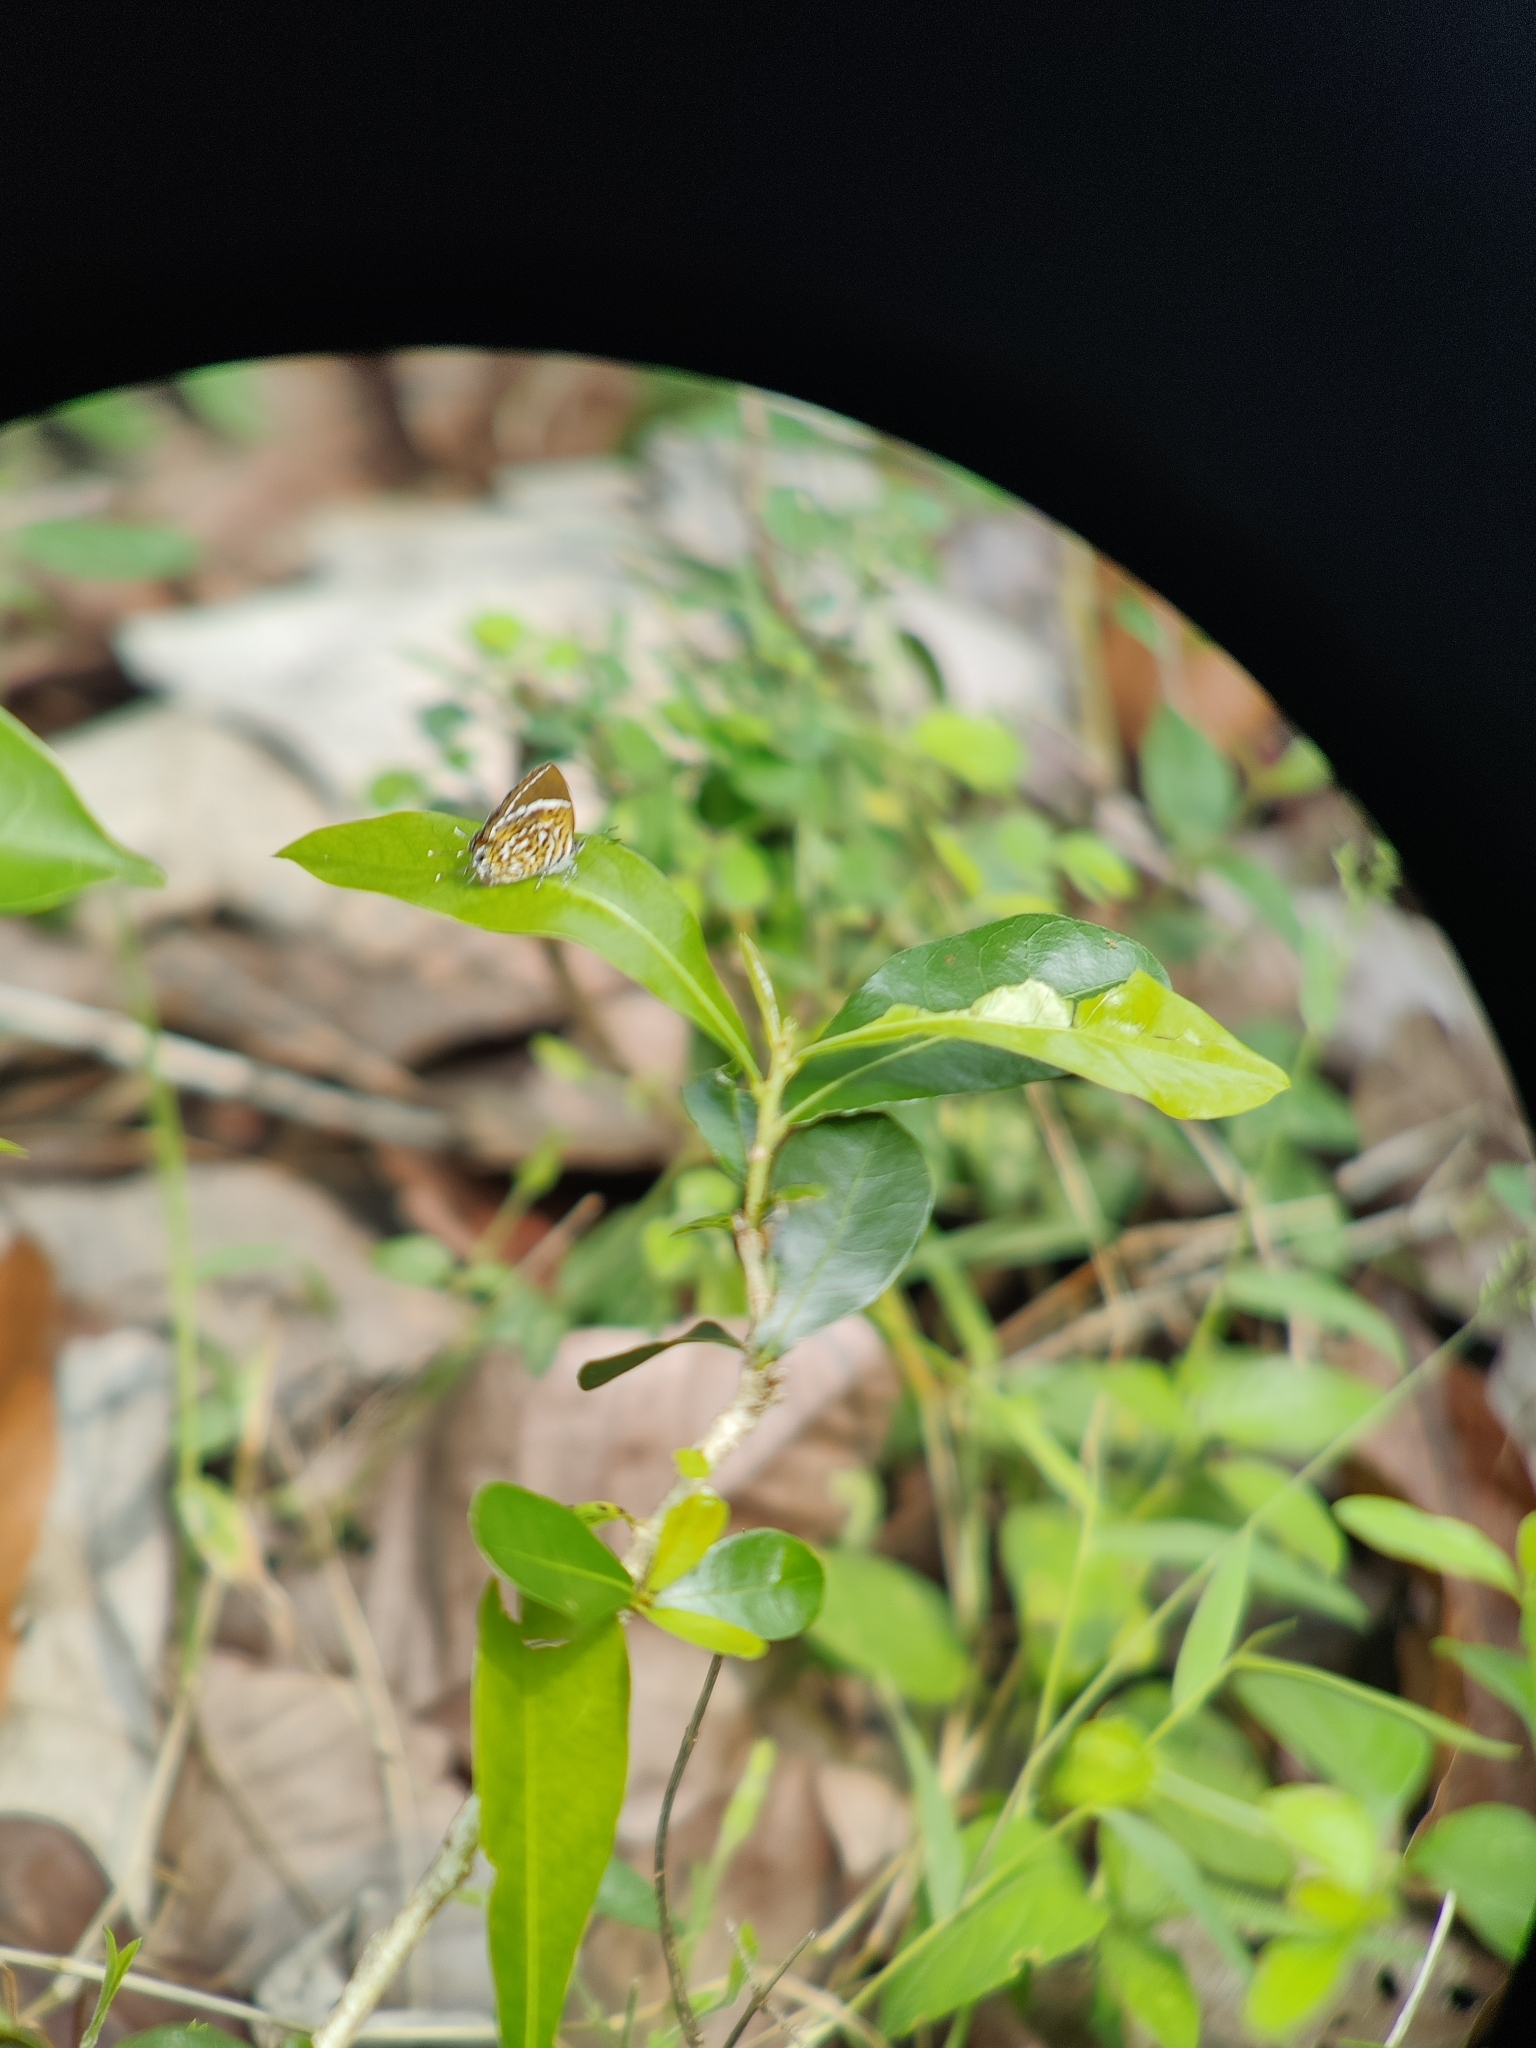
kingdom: Animalia
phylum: Arthropoda
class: Insecta
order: Lepidoptera
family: Lycaenidae
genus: Rathinda
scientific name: Rathinda amor
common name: Monkey puzzle
